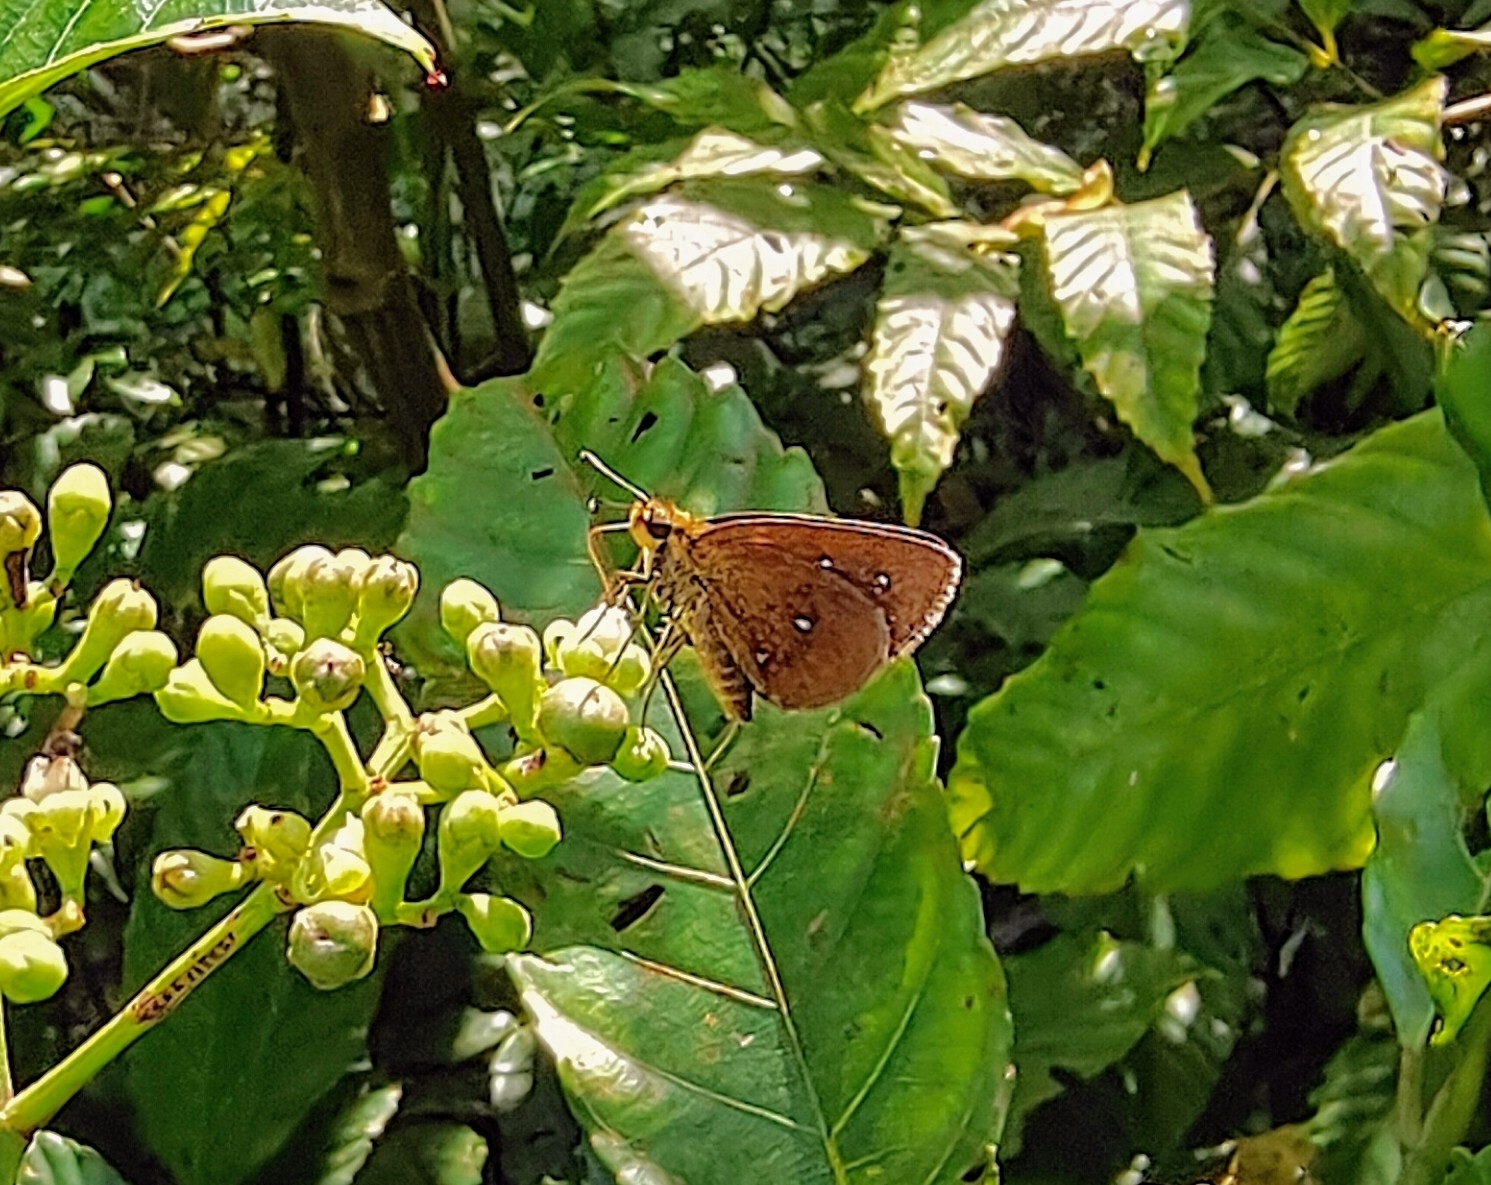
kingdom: Animalia
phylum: Arthropoda
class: Insecta
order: Lepidoptera
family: Hesperiidae
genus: Iambrix
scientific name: Iambrix salsala
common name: Chestnut bob
